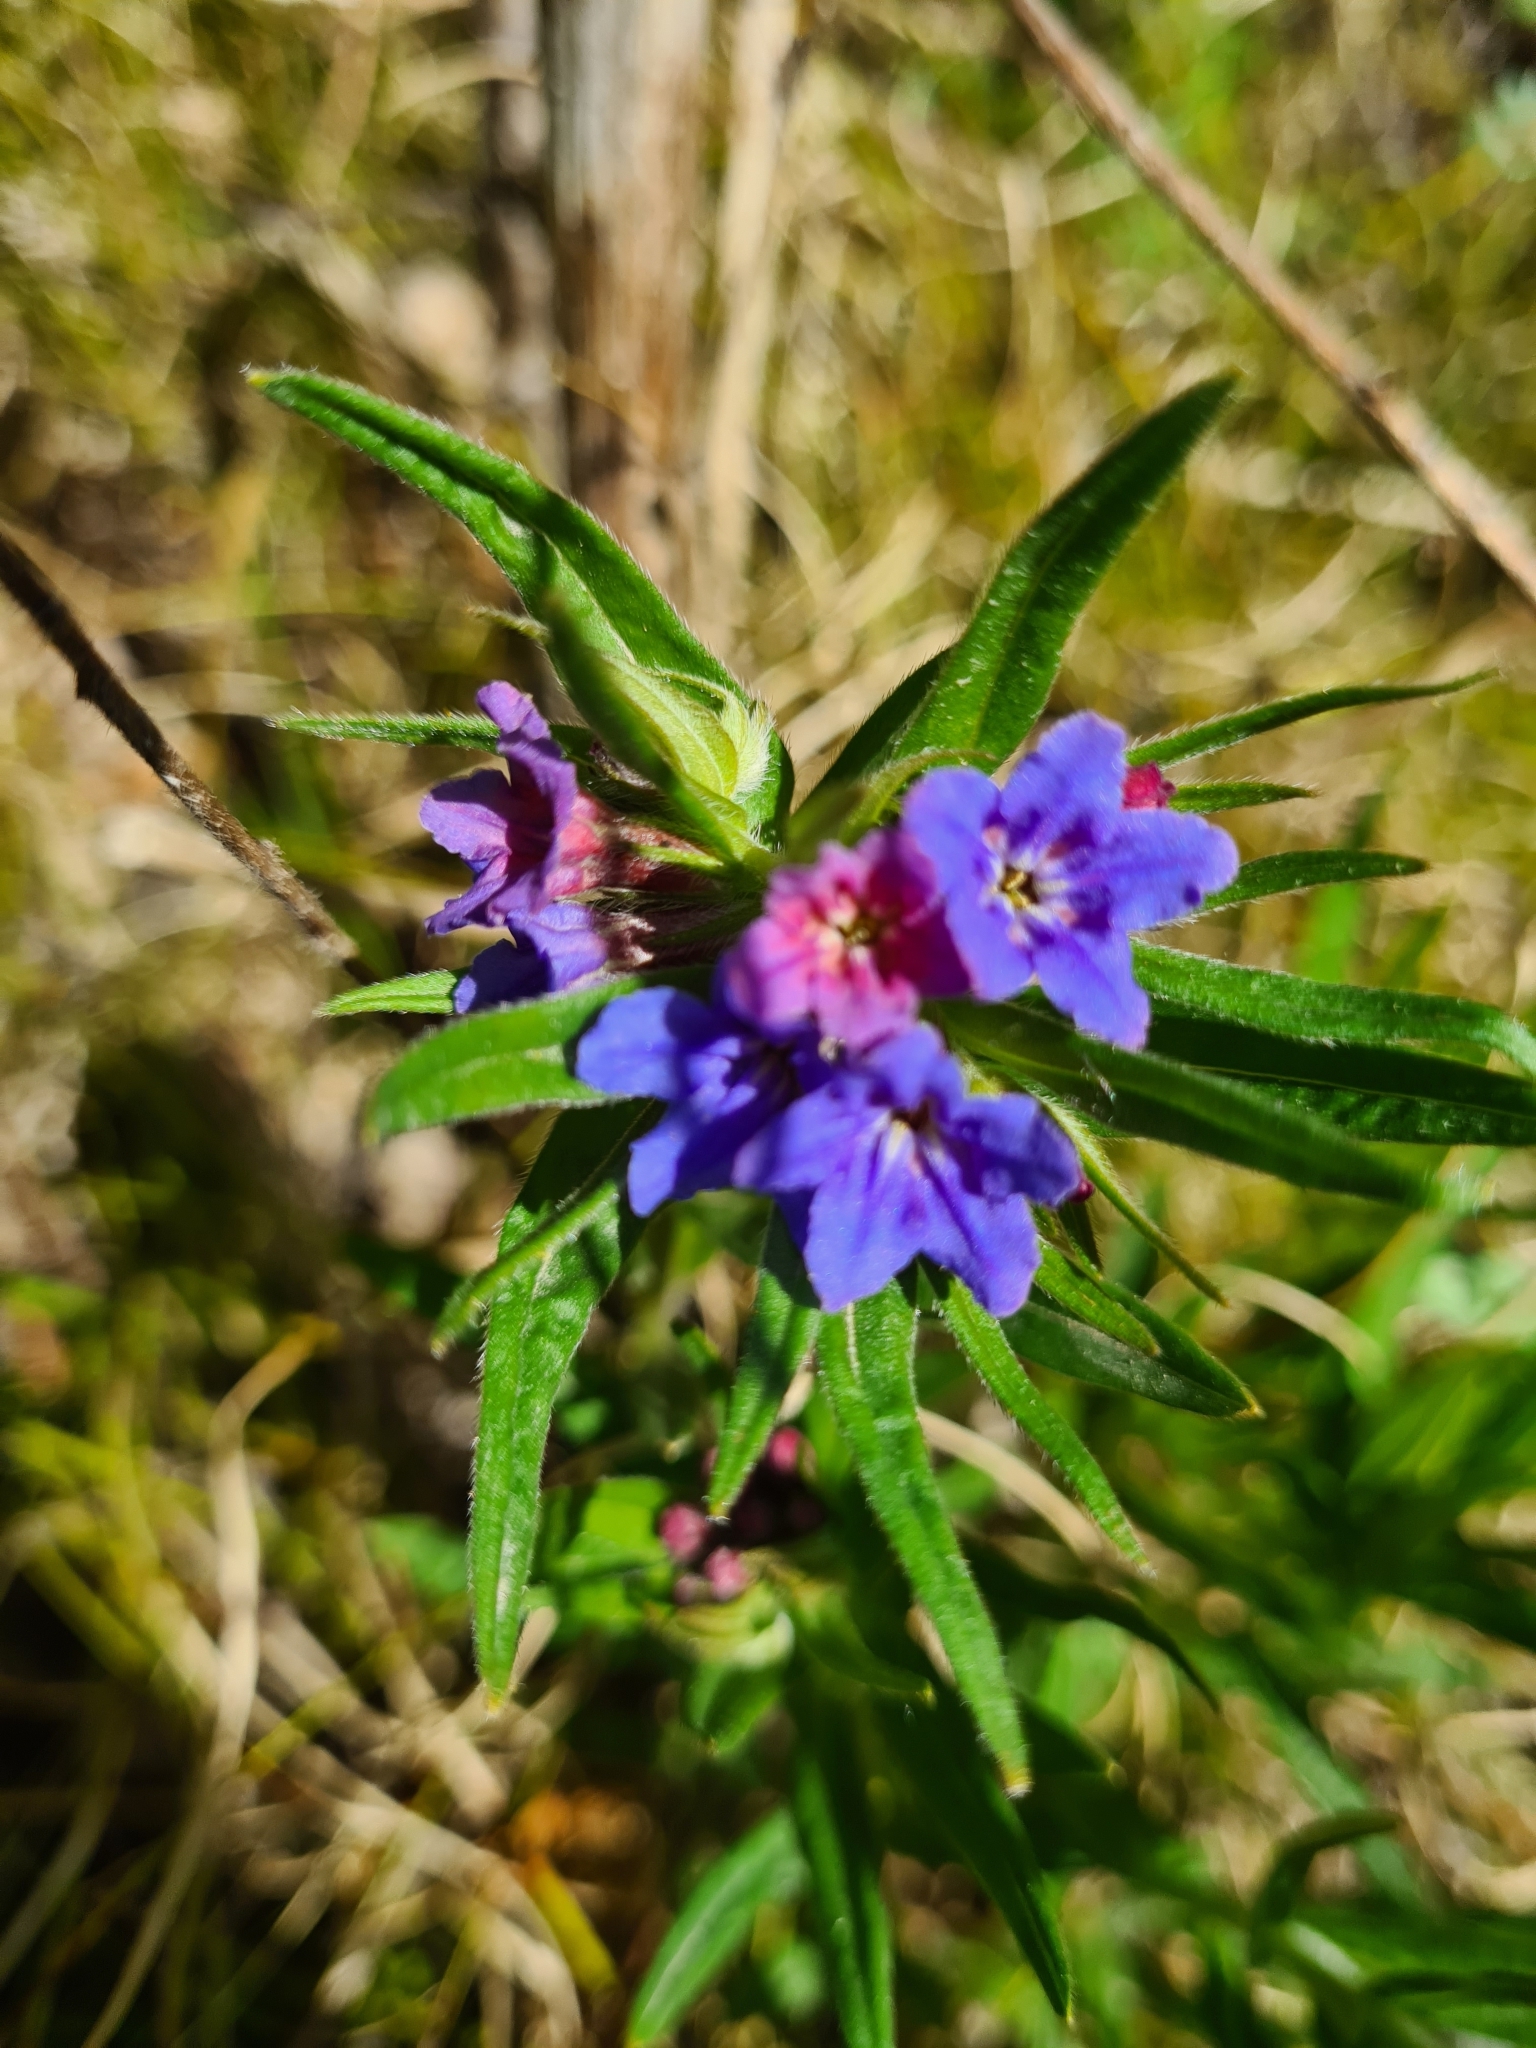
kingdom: Plantae
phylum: Tracheophyta
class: Magnoliopsida
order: Boraginales
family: Boraginaceae
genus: Aegonychon
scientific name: Aegonychon purpurocaeruleum
